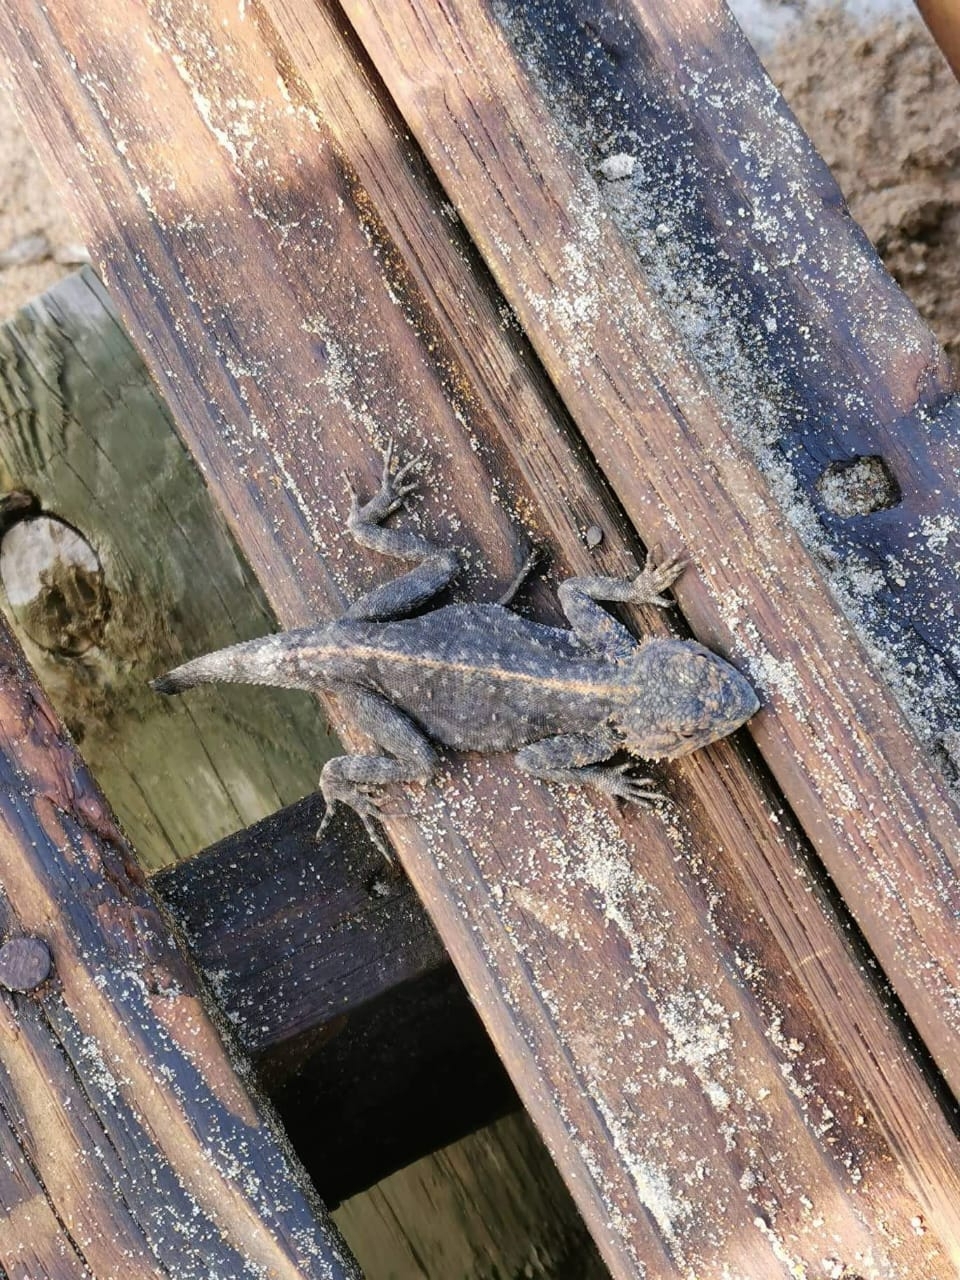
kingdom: Animalia
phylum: Chordata
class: Squamata
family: Agamidae
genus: Agama
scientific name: Agama atra
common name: Southern african rock agama
